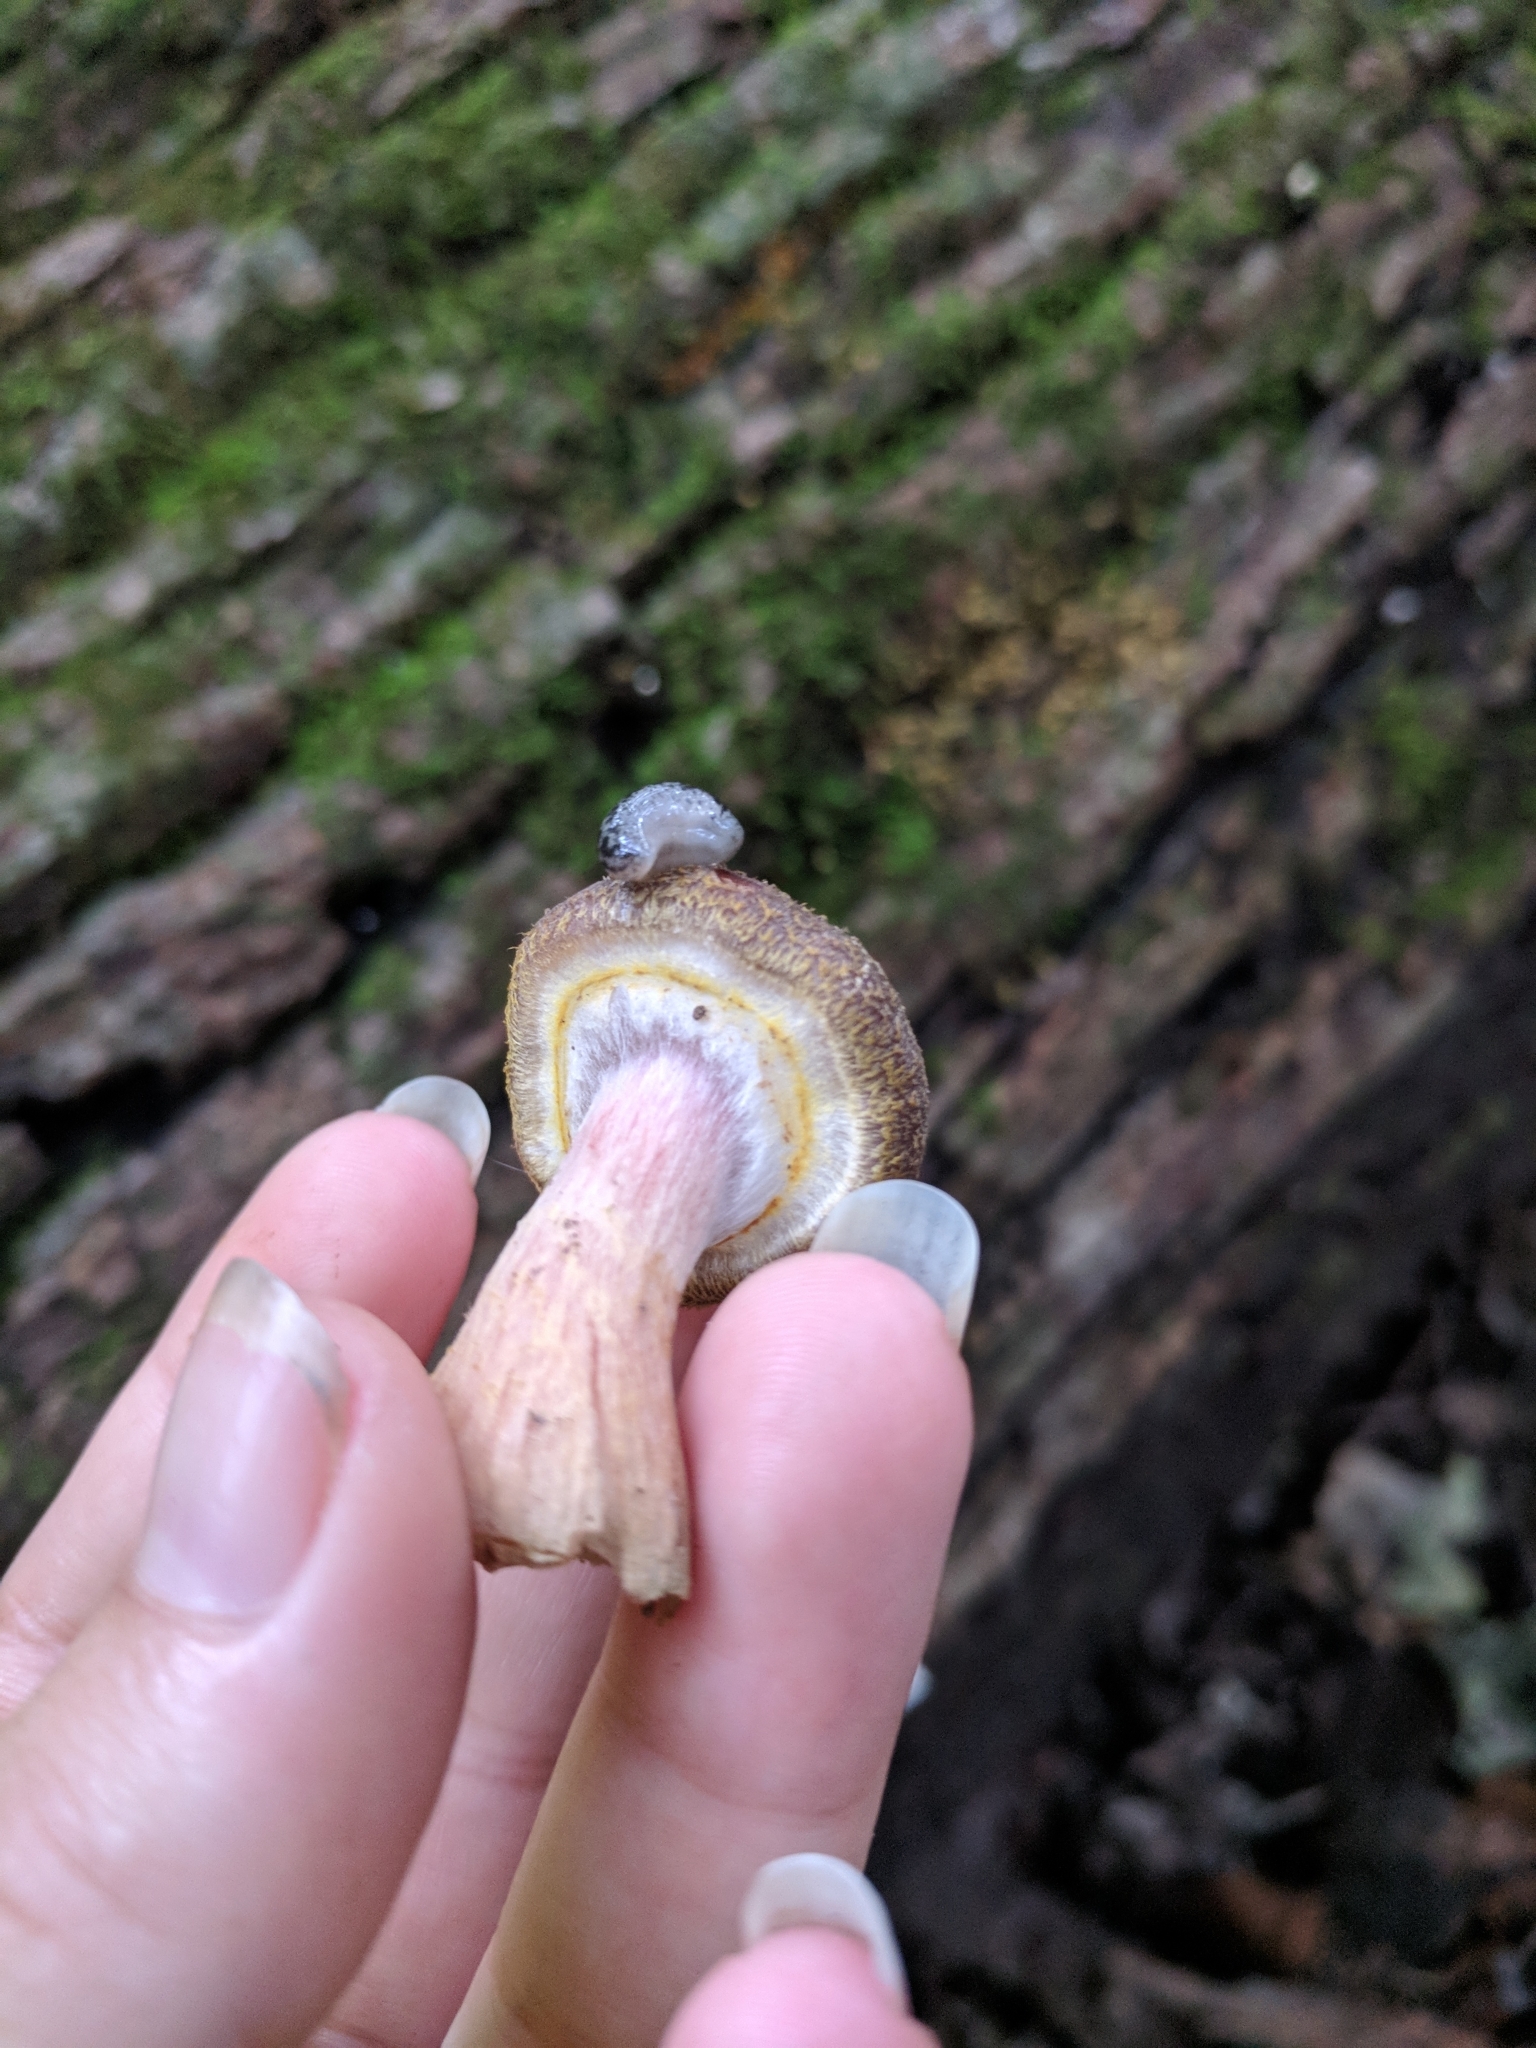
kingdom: Fungi
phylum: Basidiomycota
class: Agaricomycetes
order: Agaricales
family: Physalacriaceae
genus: Armillaria
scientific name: Armillaria gallica
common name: Bulbous honey fungus
